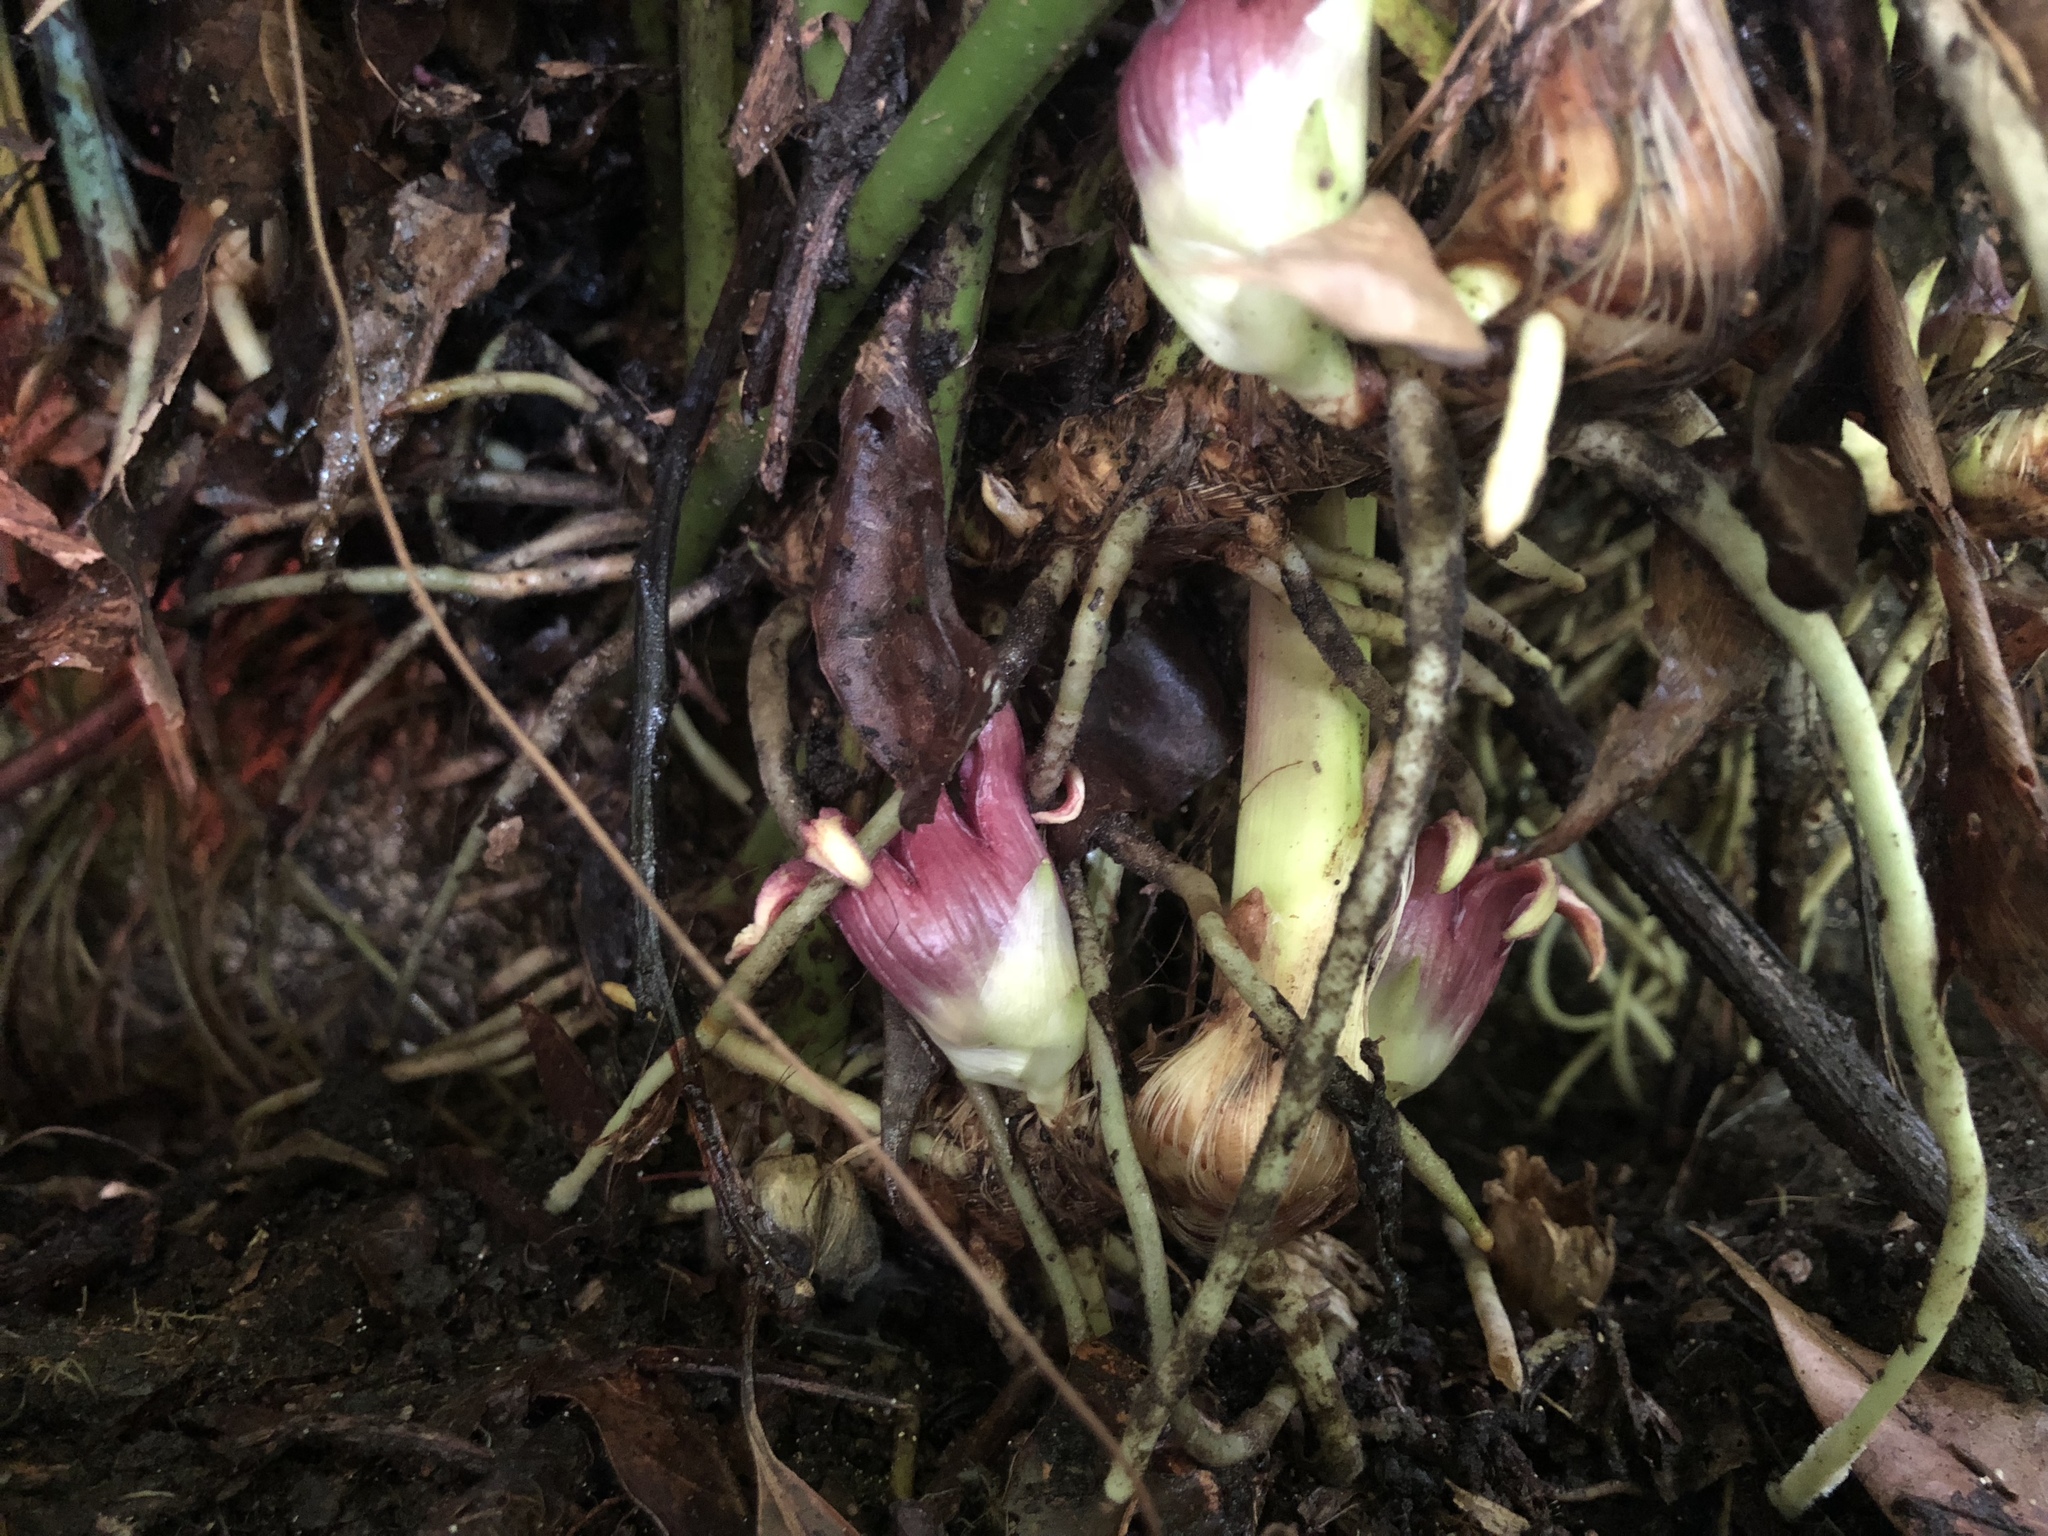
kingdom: Plantae
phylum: Tracheophyta
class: Liliopsida
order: Asparagales
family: Asparagaceae
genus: Aspidistra
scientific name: Aspidistra attenuata
